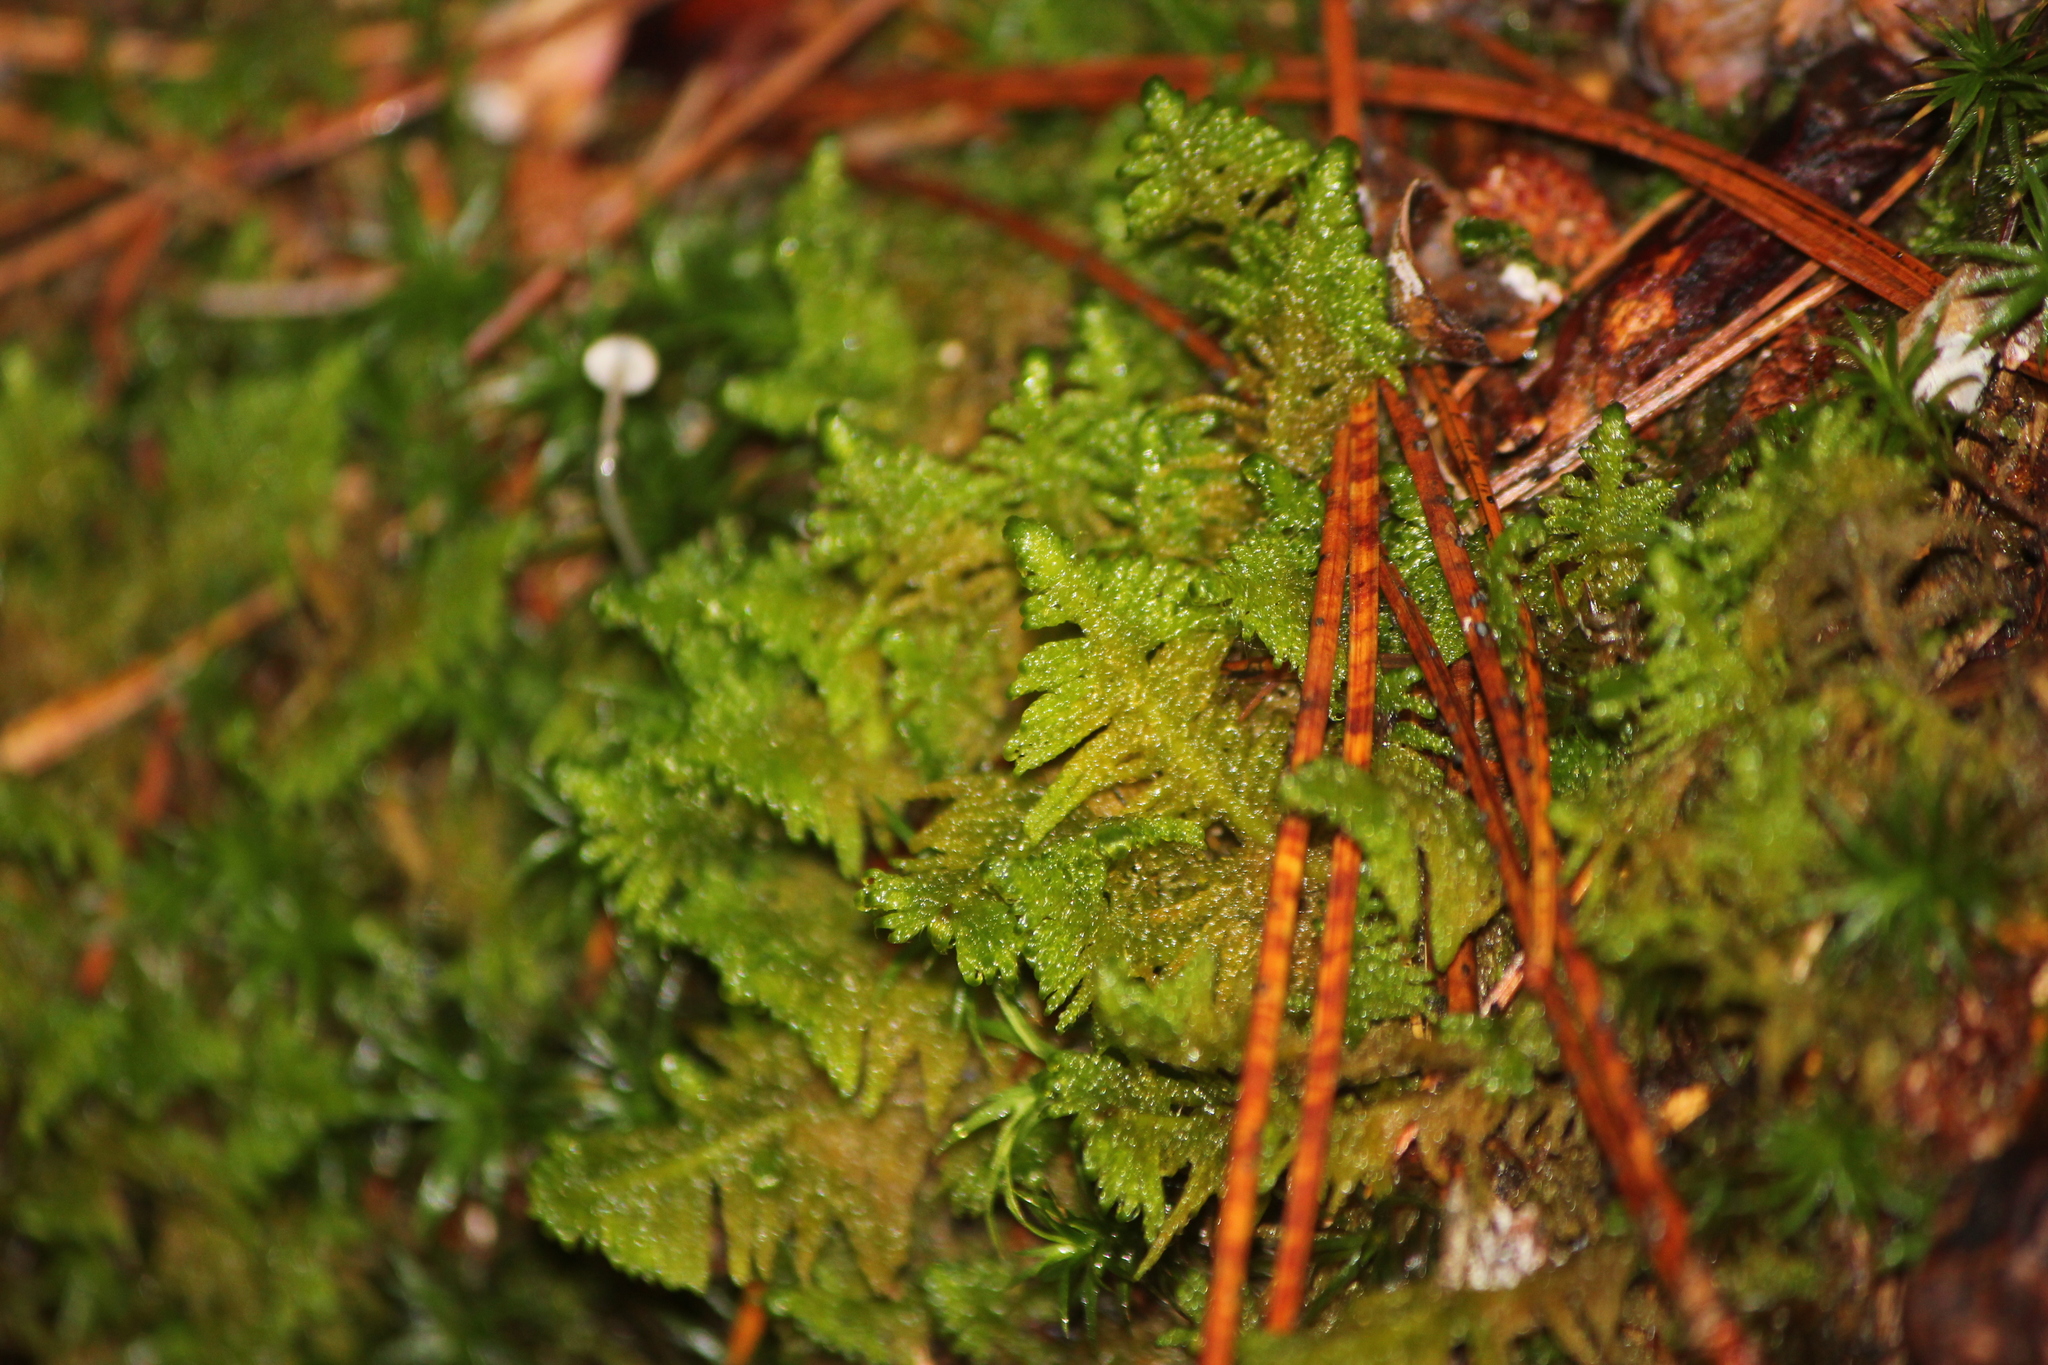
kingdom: Plantae
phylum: Bryophyta
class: Bryopsida
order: Hypnales
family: Pylaisiaceae
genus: Ptilium
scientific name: Ptilium crista-castrensis
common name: Knight's plume moss
